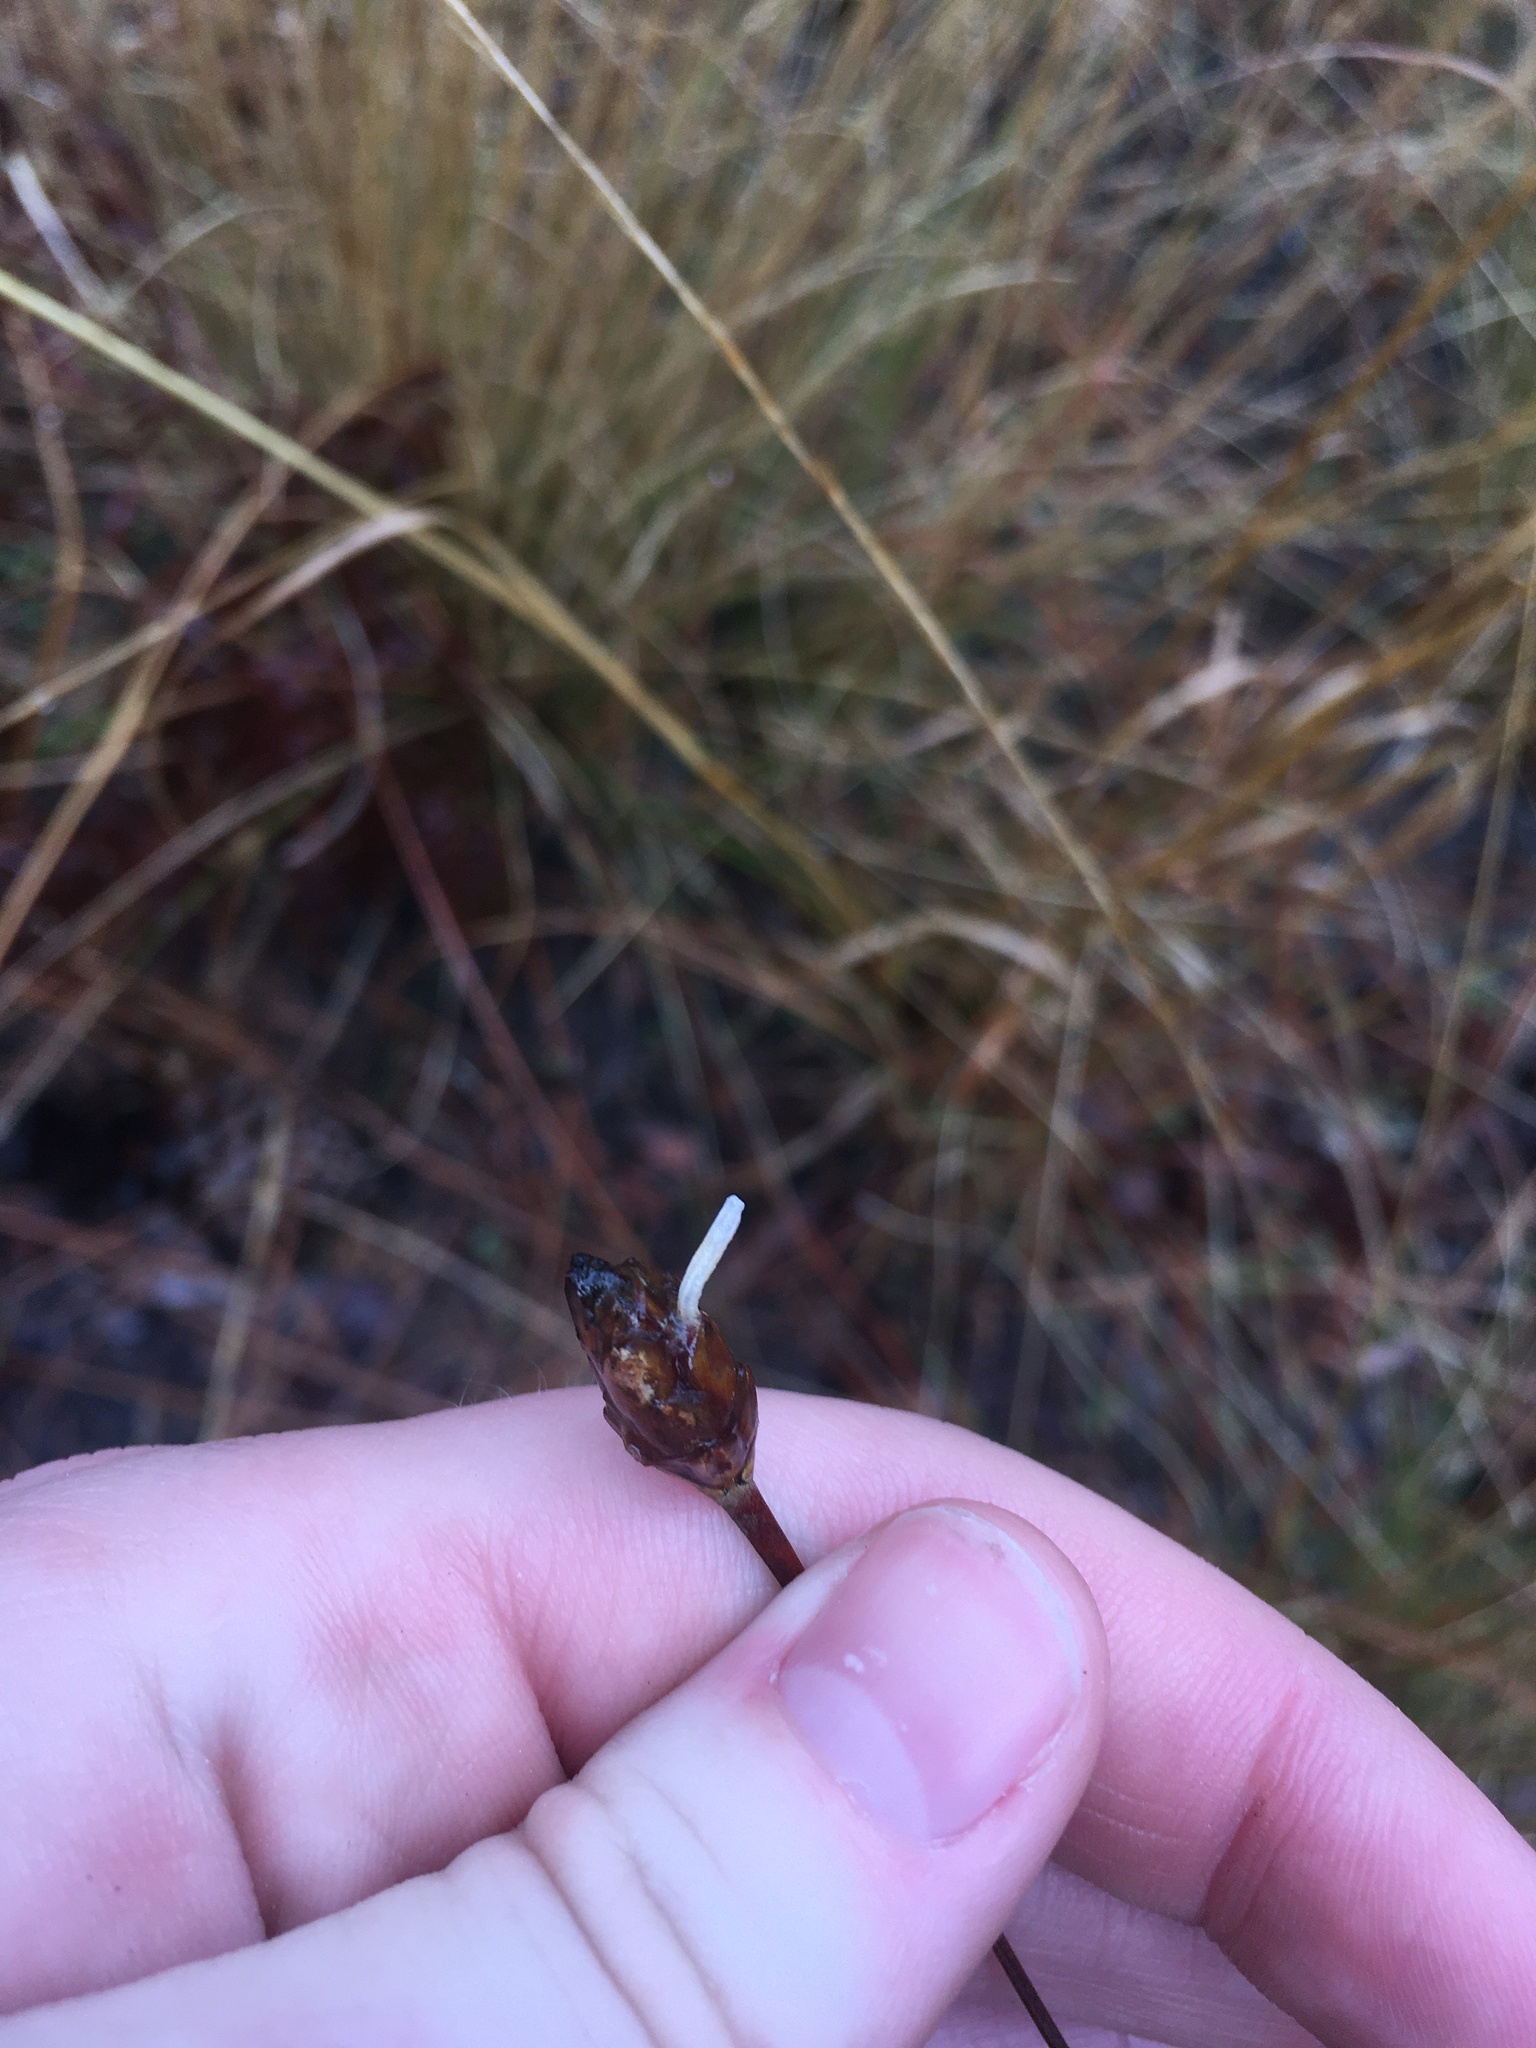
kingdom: Animalia
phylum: Arthropoda
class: Insecta
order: Lepidoptera
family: Coleophoridae
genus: Coleophora
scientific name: Coleophora xyridella
